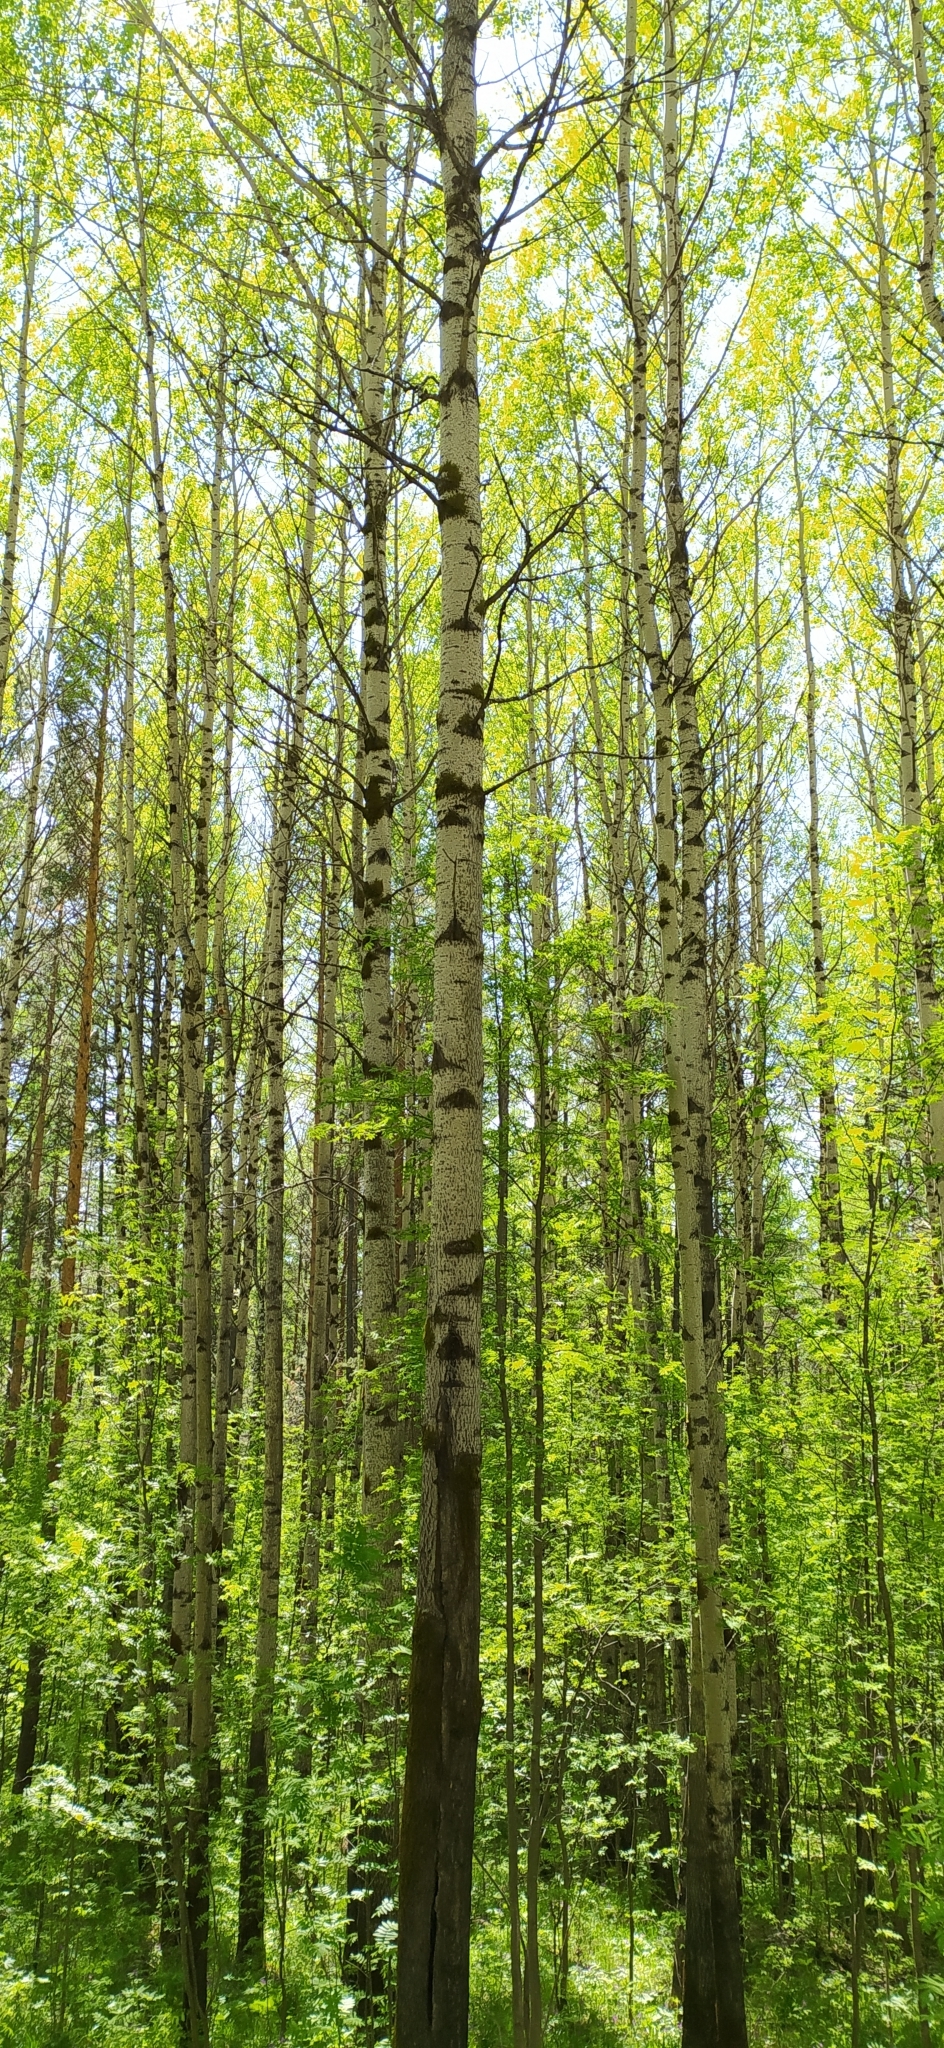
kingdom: Plantae
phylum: Tracheophyta
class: Magnoliopsida
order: Malpighiales
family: Salicaceae
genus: Populus
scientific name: Populus tremula
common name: European aspen
